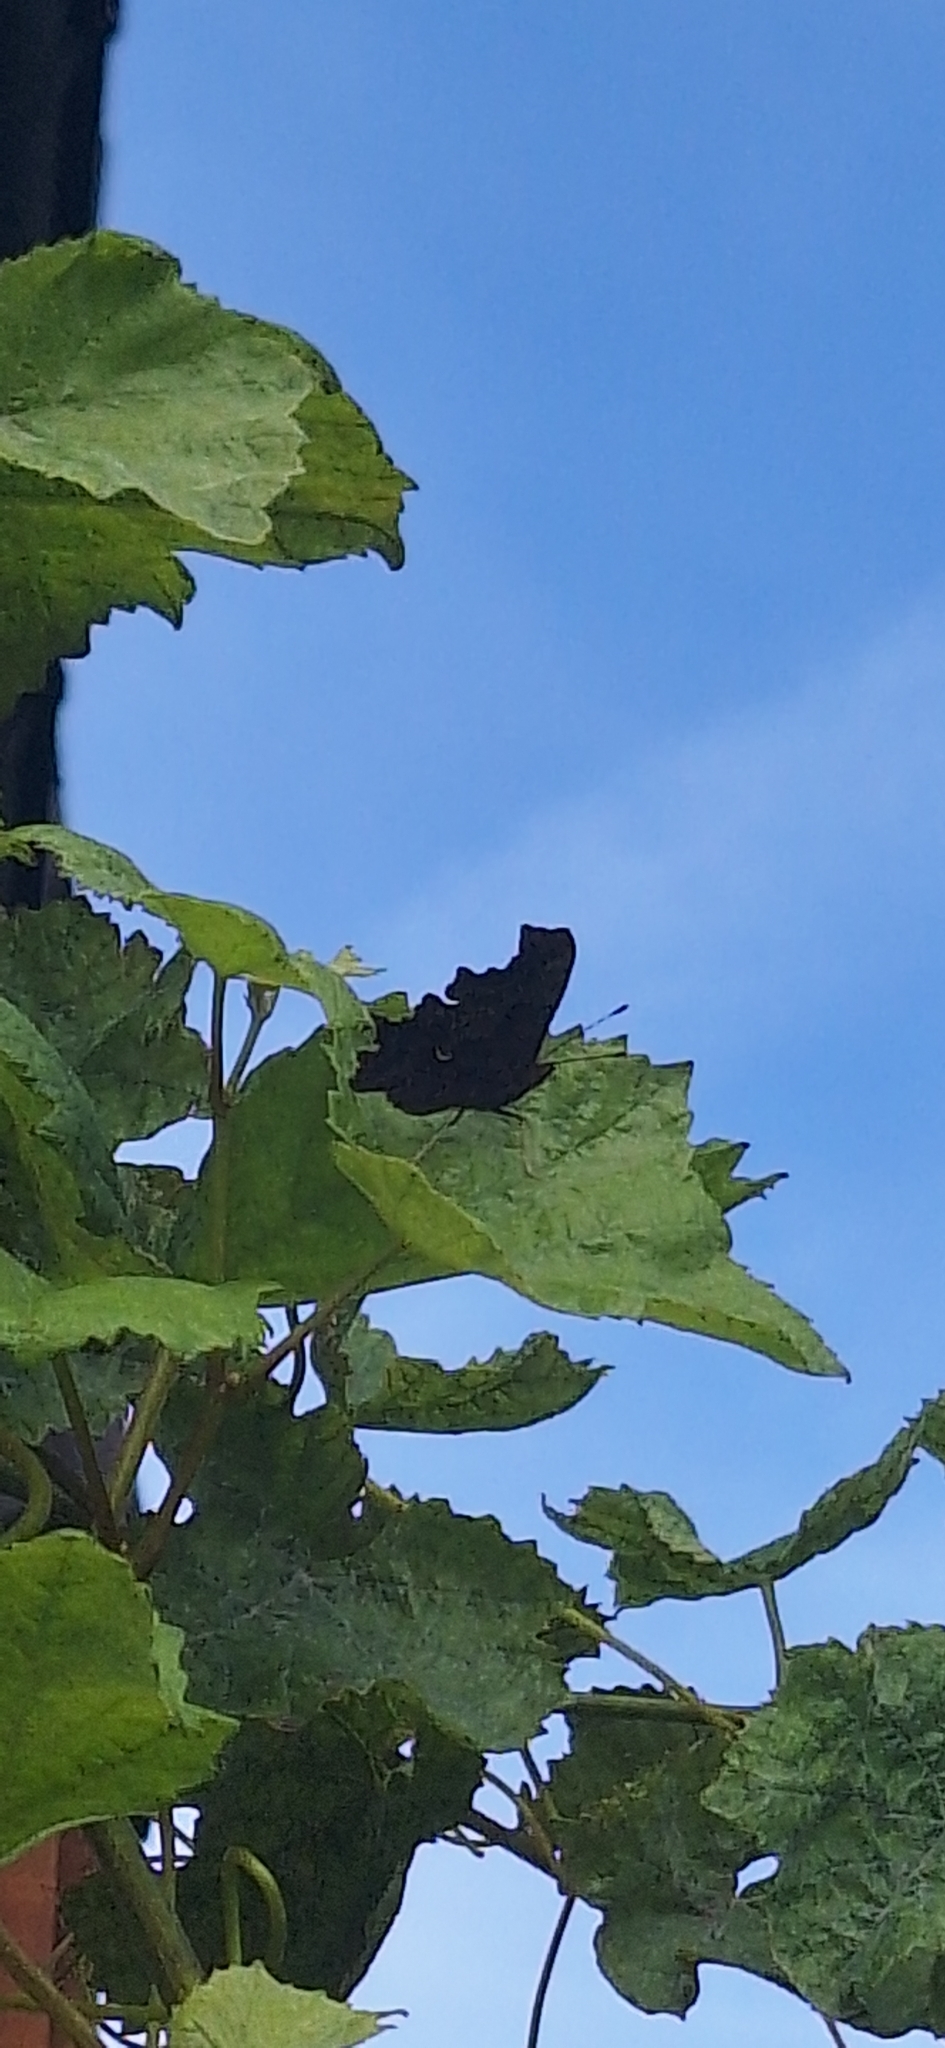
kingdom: Animalia
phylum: Arthropoda
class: Insecta
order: Lepidoptera
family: Nymphalidae
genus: Polygonia
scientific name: Polygonia c-album
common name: Comma
